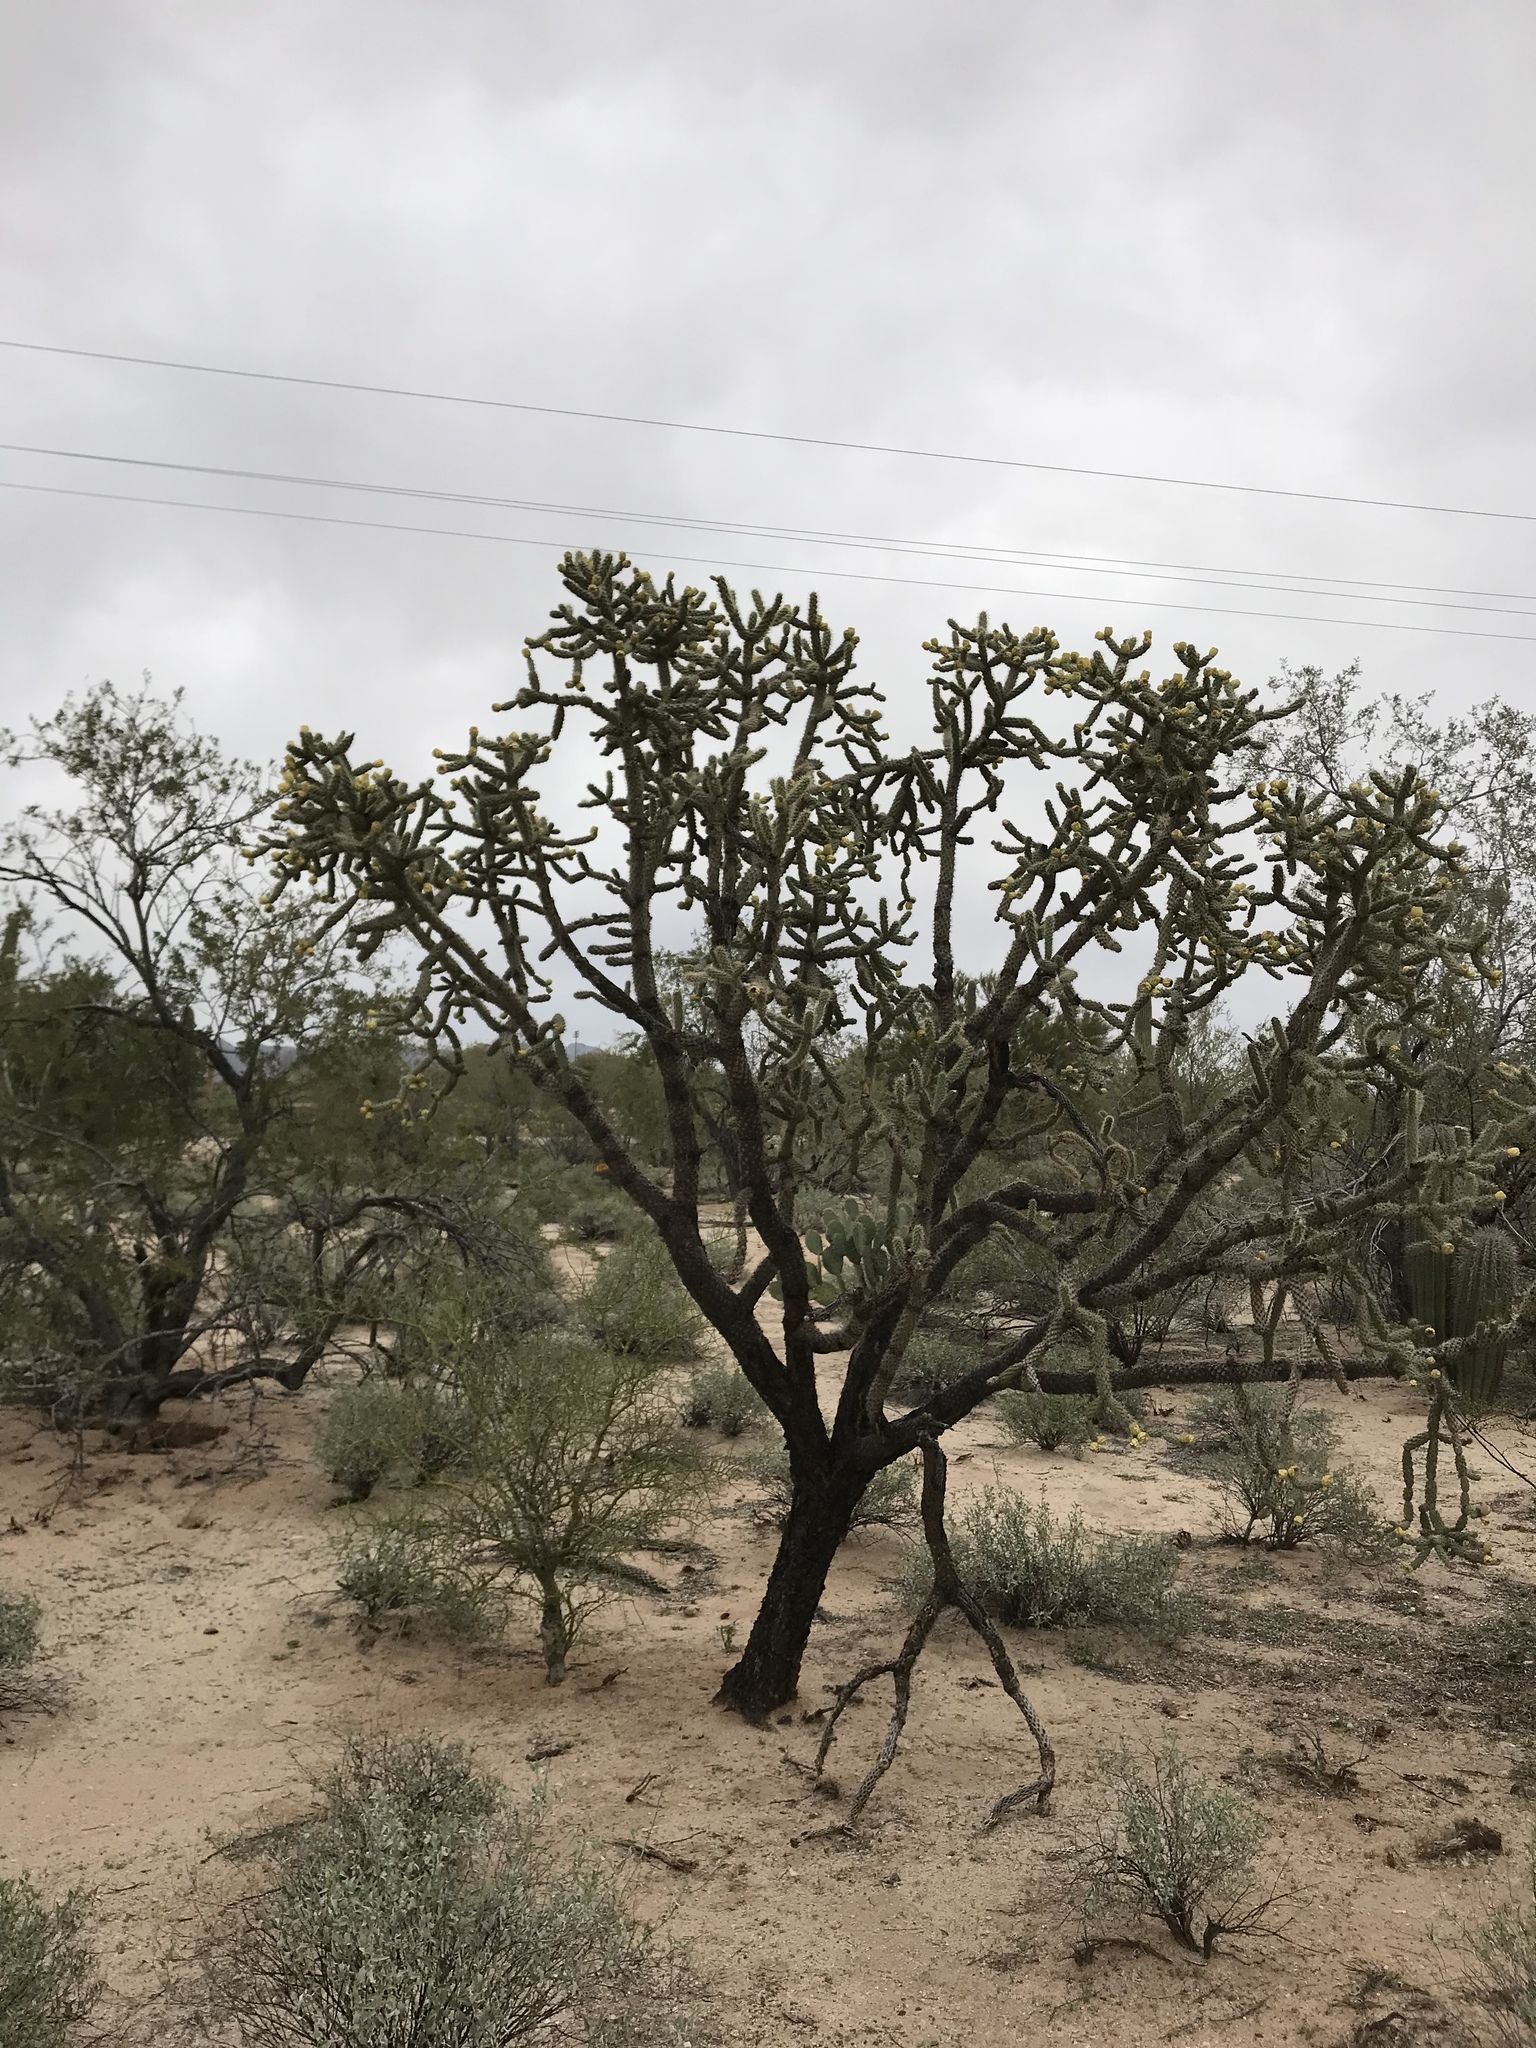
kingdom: Plantae
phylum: Tracheophyta
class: Magnoliopsida
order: Caryophyllales
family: Cactaceae
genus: Cylindropuntia
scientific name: Cylindropuntia imbricata
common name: Candelabrum cactus
